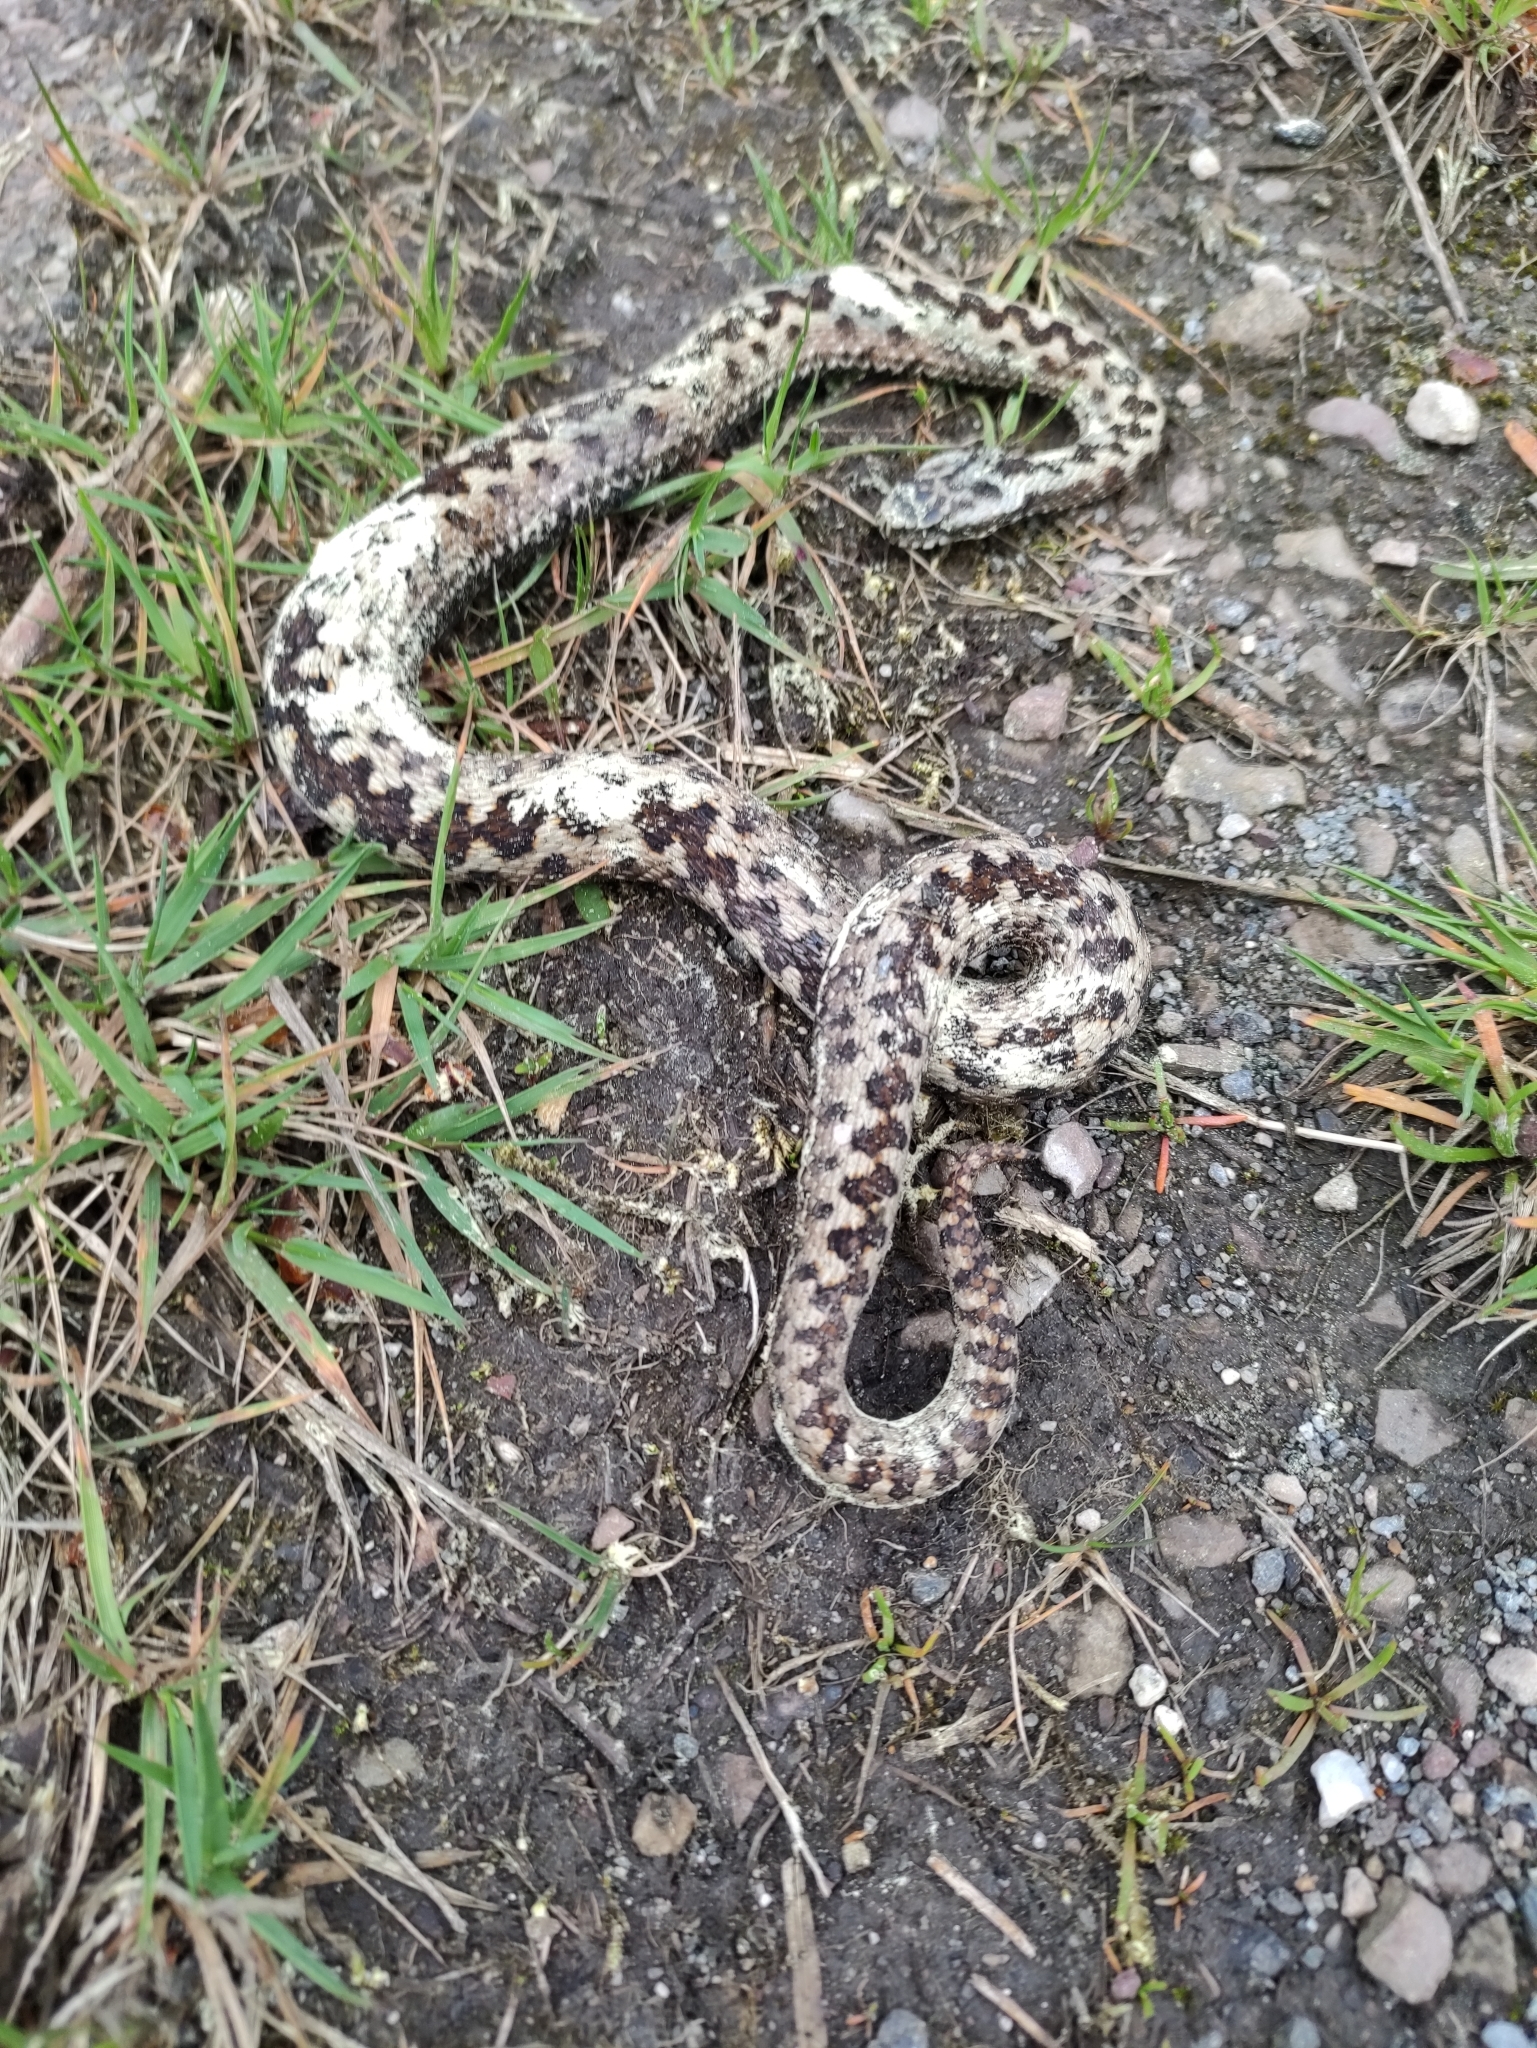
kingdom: Animalia
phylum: Chordata
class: Squamata
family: Viperidae
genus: Vipera
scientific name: Vipera berus
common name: Adder
